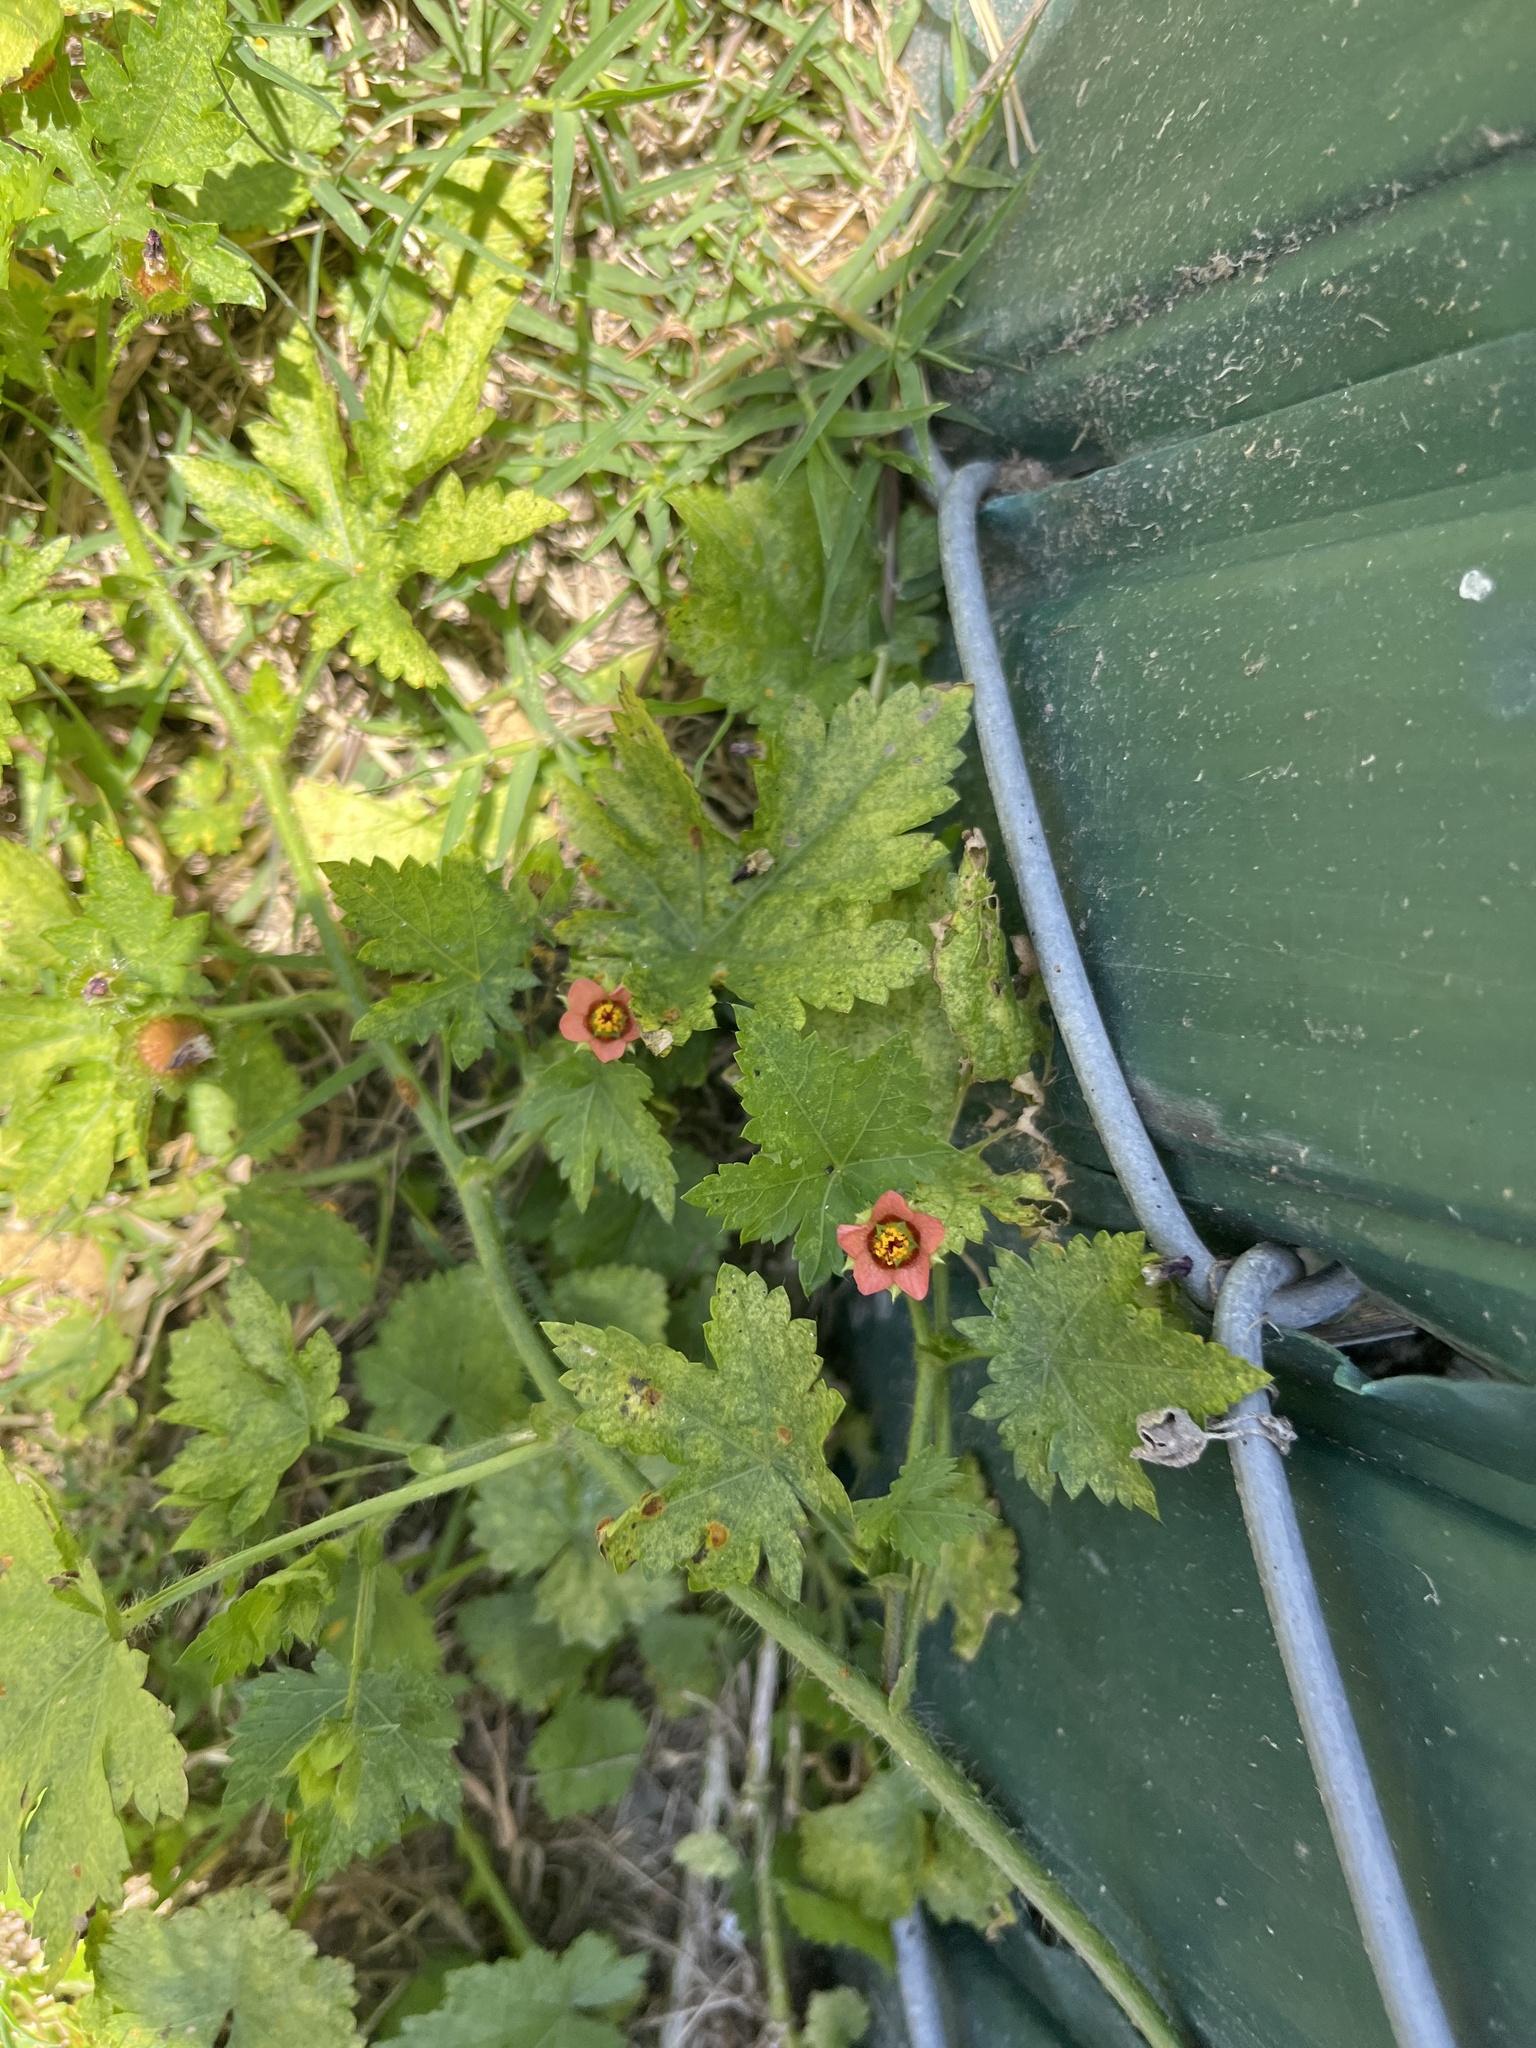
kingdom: Plantae
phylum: Tracheophyta
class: Magnoliopsida
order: Malvales
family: Malvaceae
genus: Modiola
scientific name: Modiola caroliniana
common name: Carolina bristlemallow
